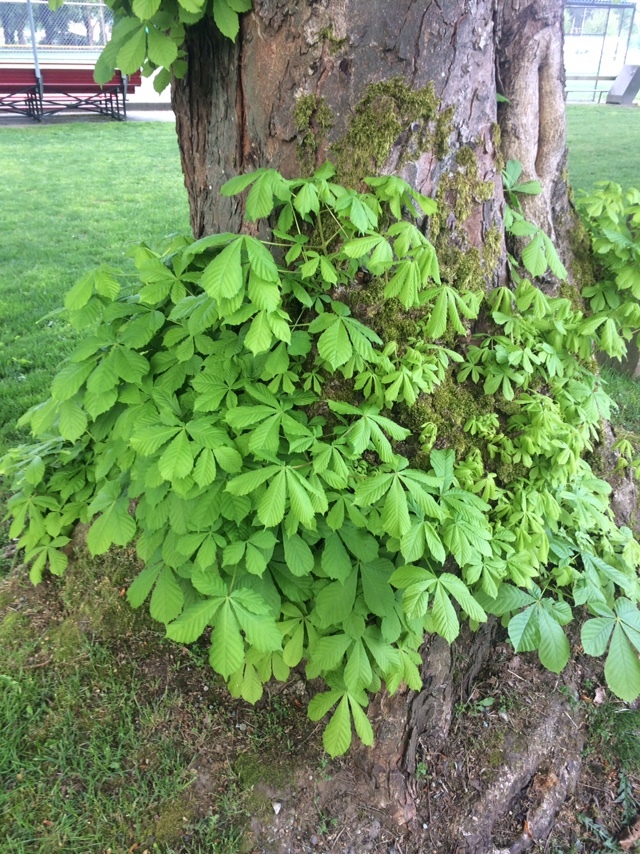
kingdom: Plantae
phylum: Tracheophyta
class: Magnoliopsida
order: Sapindales
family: Sapindaceae
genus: Aesculus
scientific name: Aesculus hippocastanum
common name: Horse-chestnut
